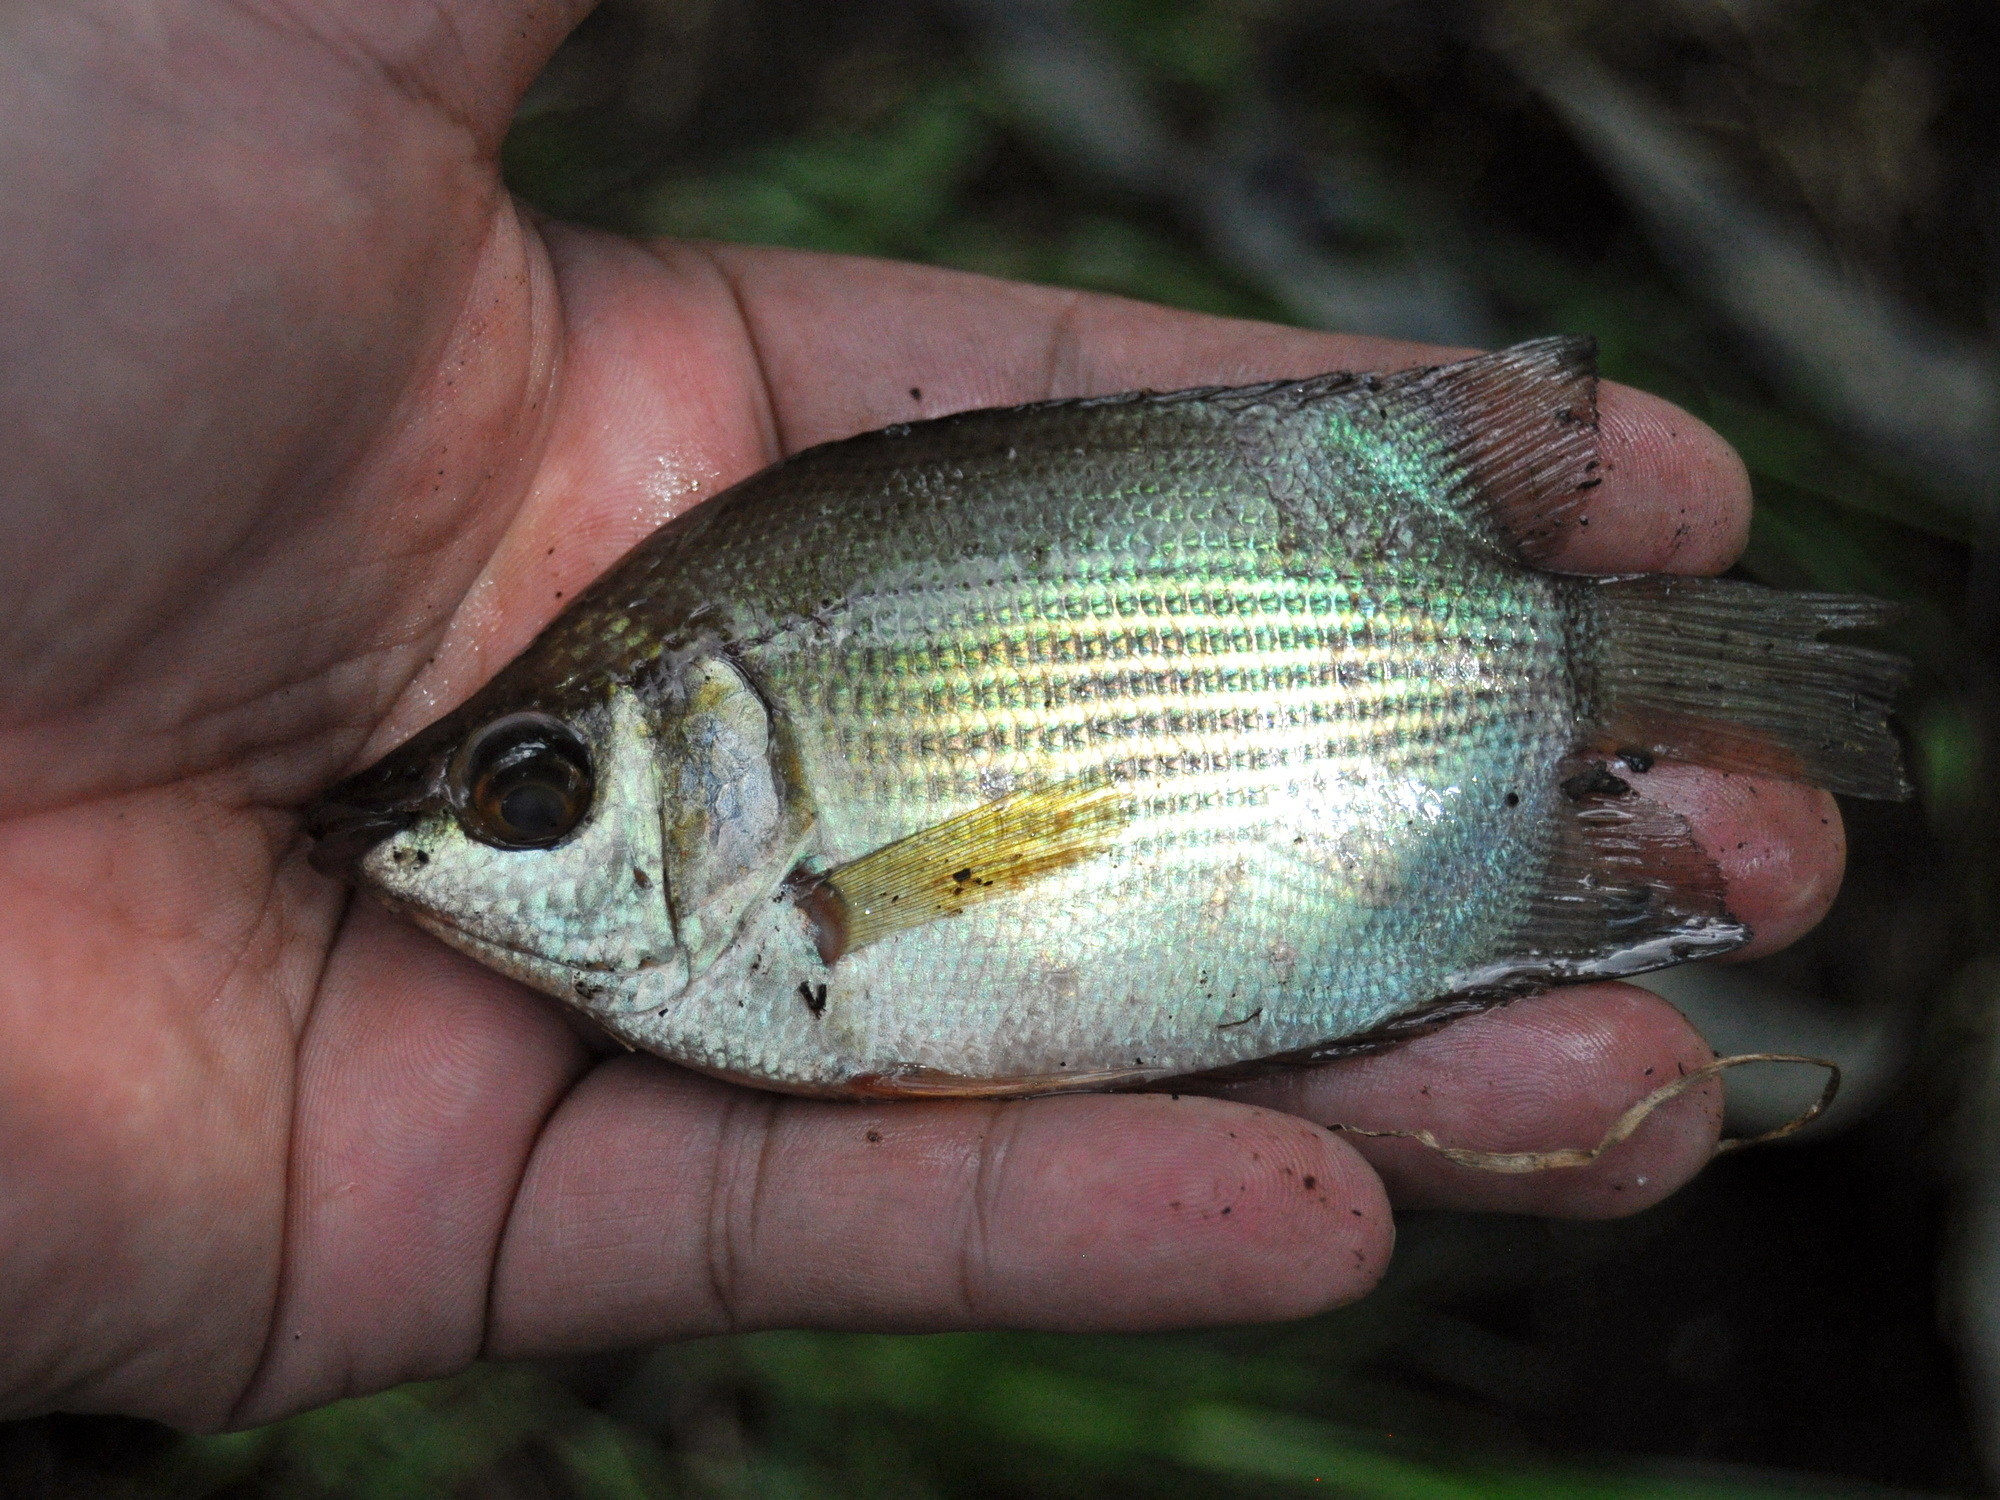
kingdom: Animalia
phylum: Chordata
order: Perciformes
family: Helostomatidae
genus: Helostoma
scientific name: Helostoma temminckii
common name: Kissing gourami
